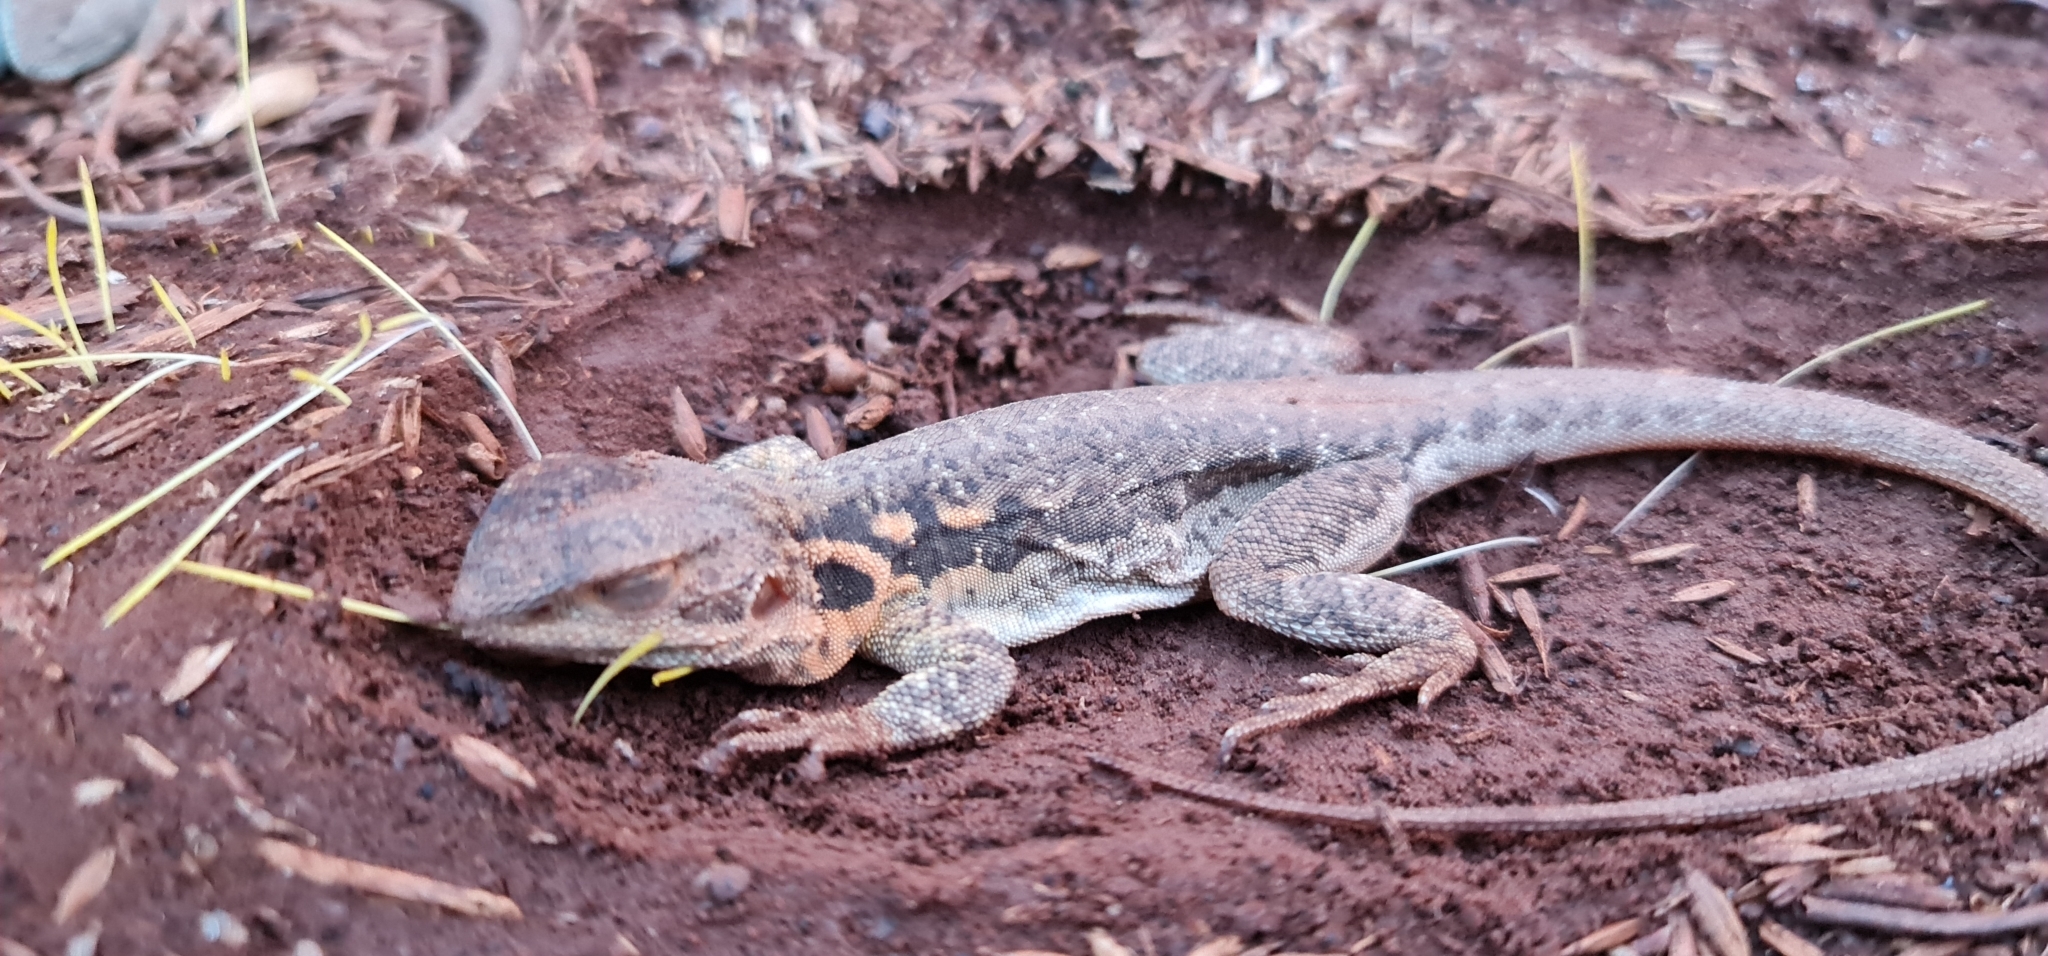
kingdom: Animalia
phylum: Chordata
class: Squamata
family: Agamidae
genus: Ctenophorus
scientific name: Ctenophorus decresii
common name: Tawny dragon
